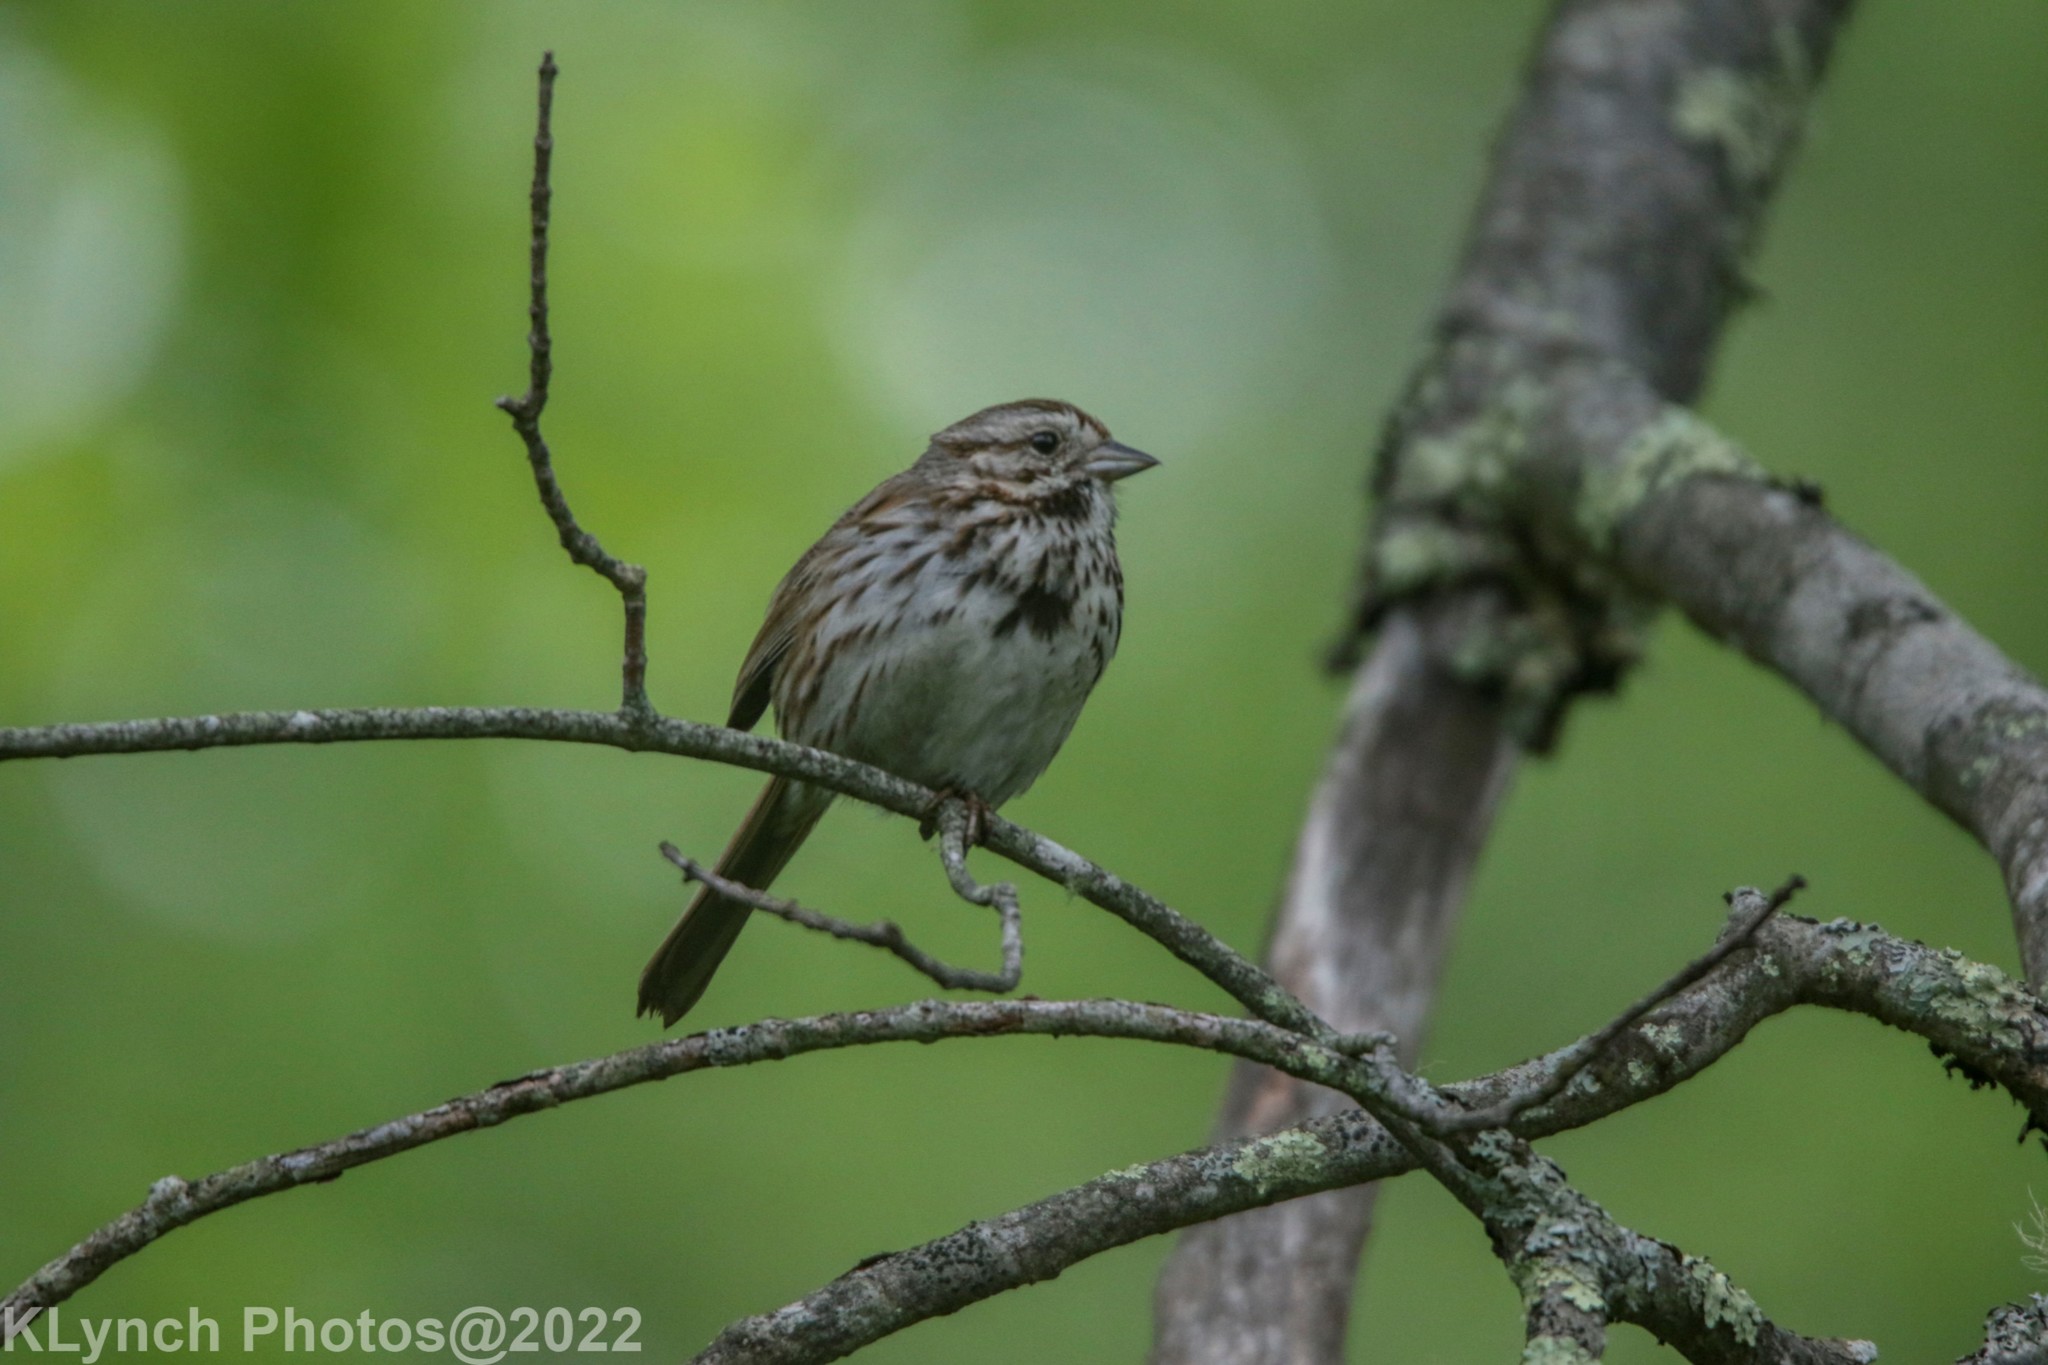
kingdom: Animalia
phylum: Chordata
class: Aves
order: Passeriformes
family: Passerellidae
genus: Melospiza
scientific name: Melospiza melodia
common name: Song sparrow
